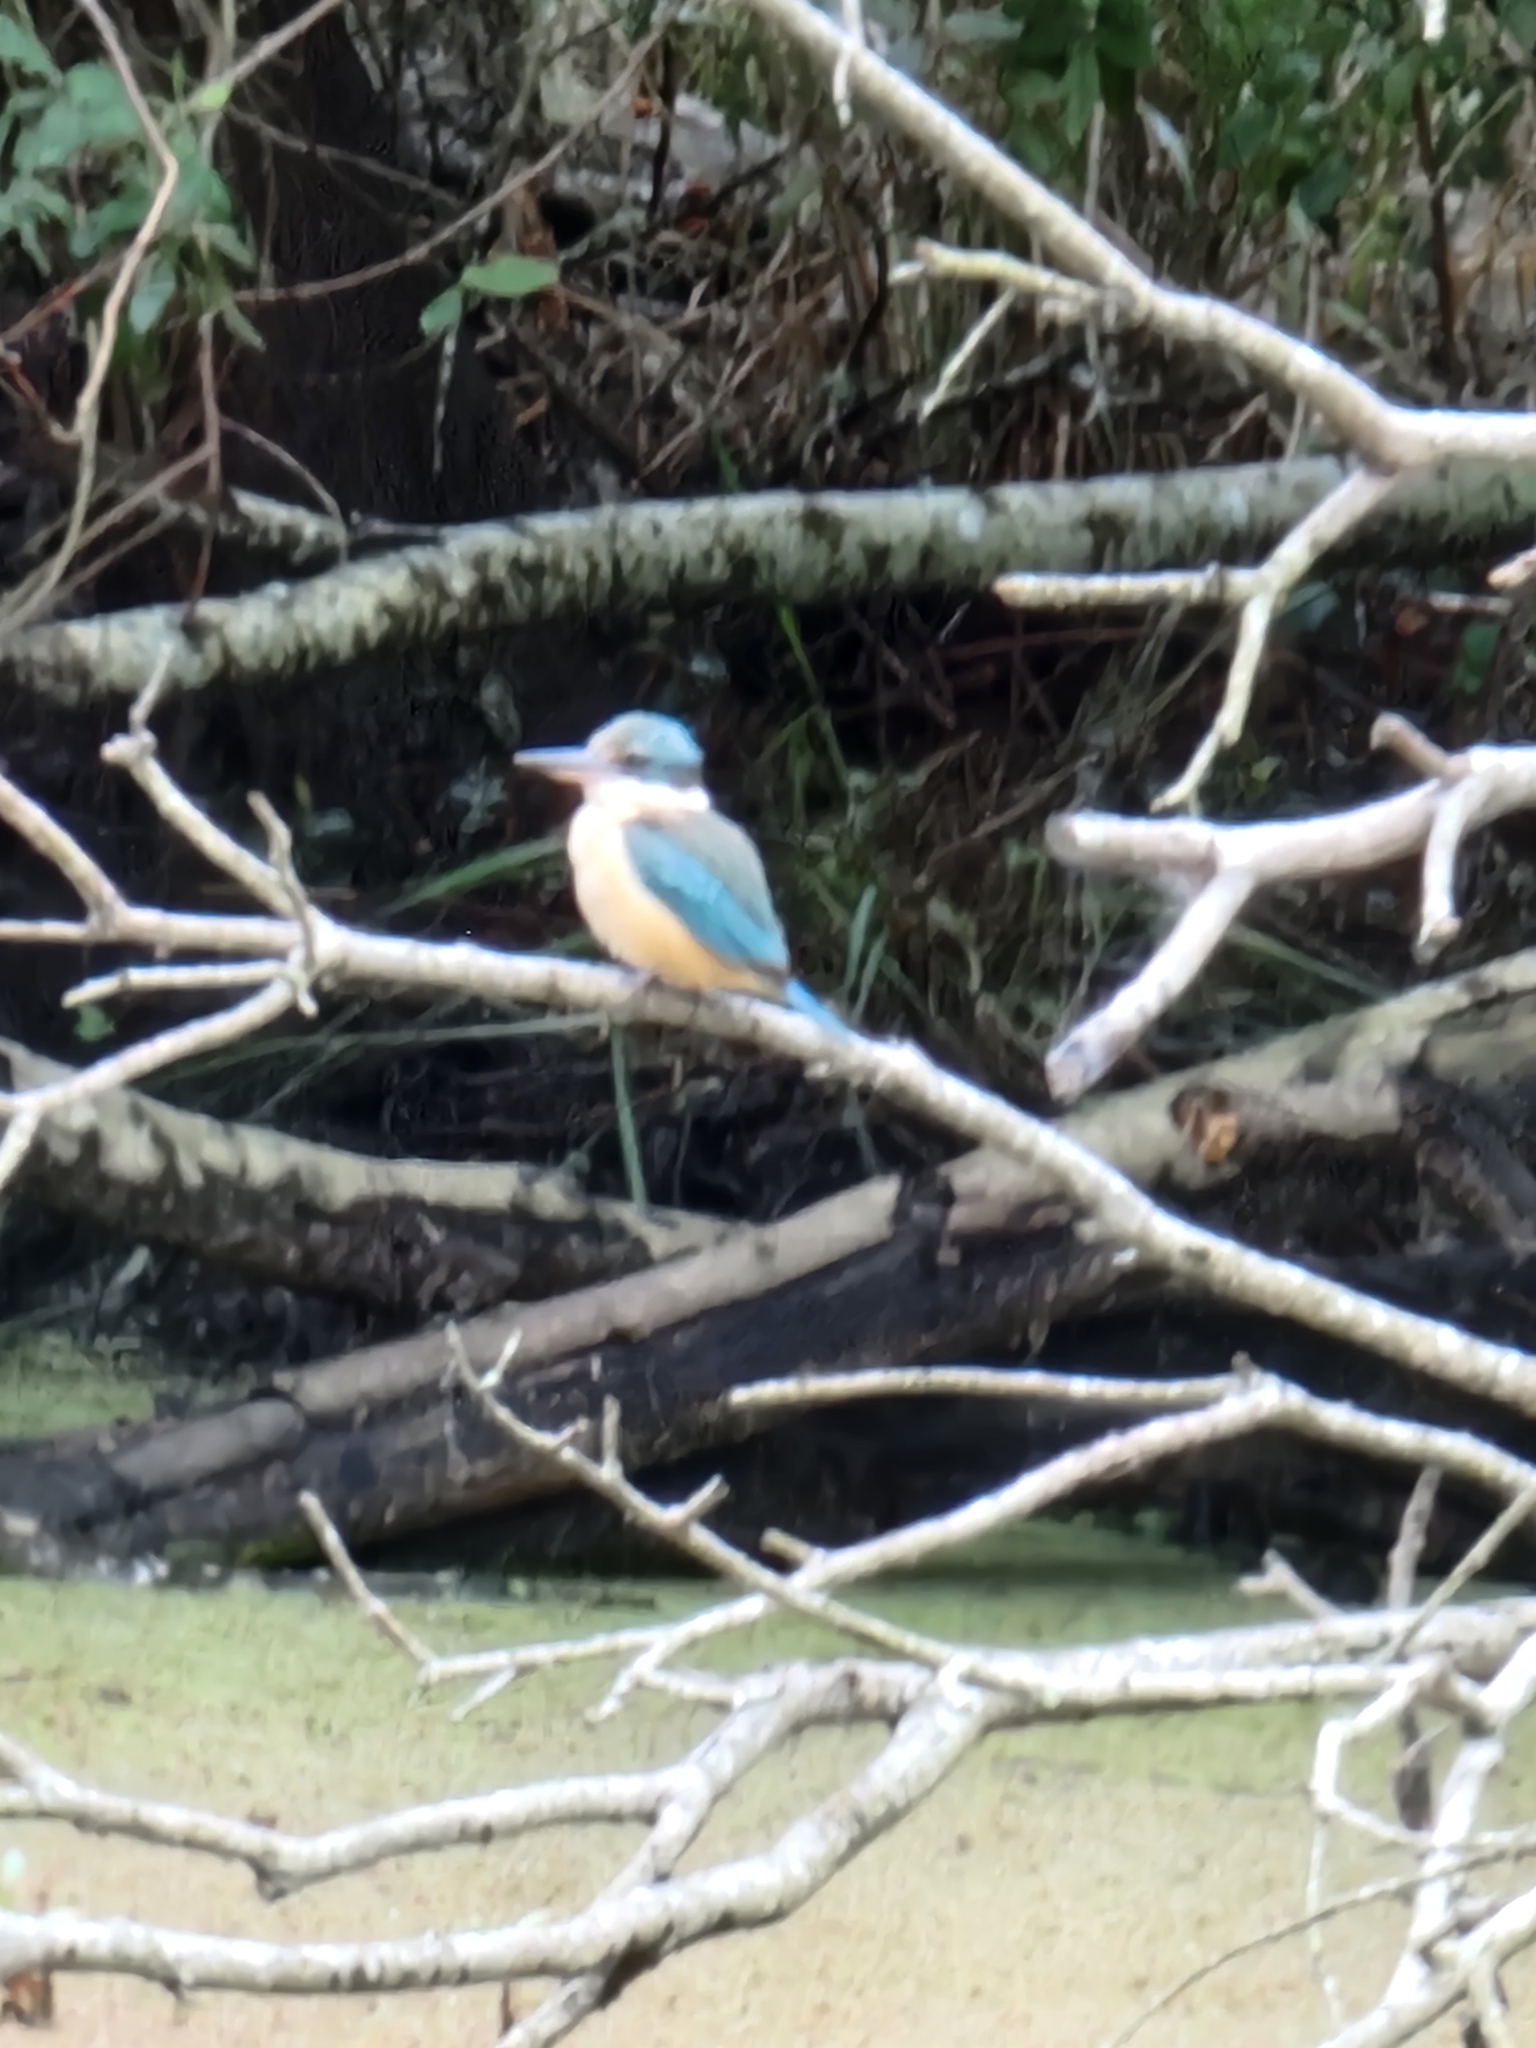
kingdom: Animalia
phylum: Chordata
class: Aves
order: Coraciiformes
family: Alcedinidae
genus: Todiramphus
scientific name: Todiramphus sanctus
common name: Sacred kingfisher
